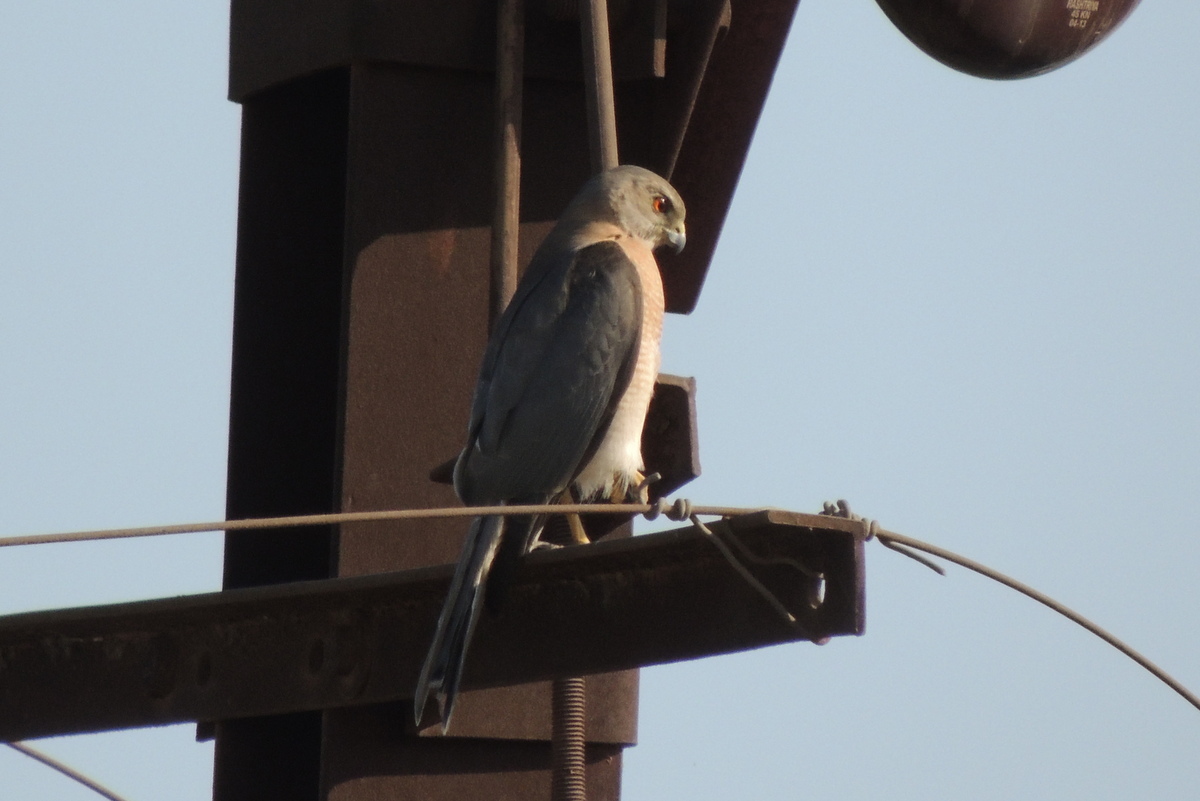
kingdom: Animalia
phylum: Chordata
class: Aves
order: Accipitriformes
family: Accipitridae
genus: Accipiter
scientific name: Accipiter badius
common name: Shikra
